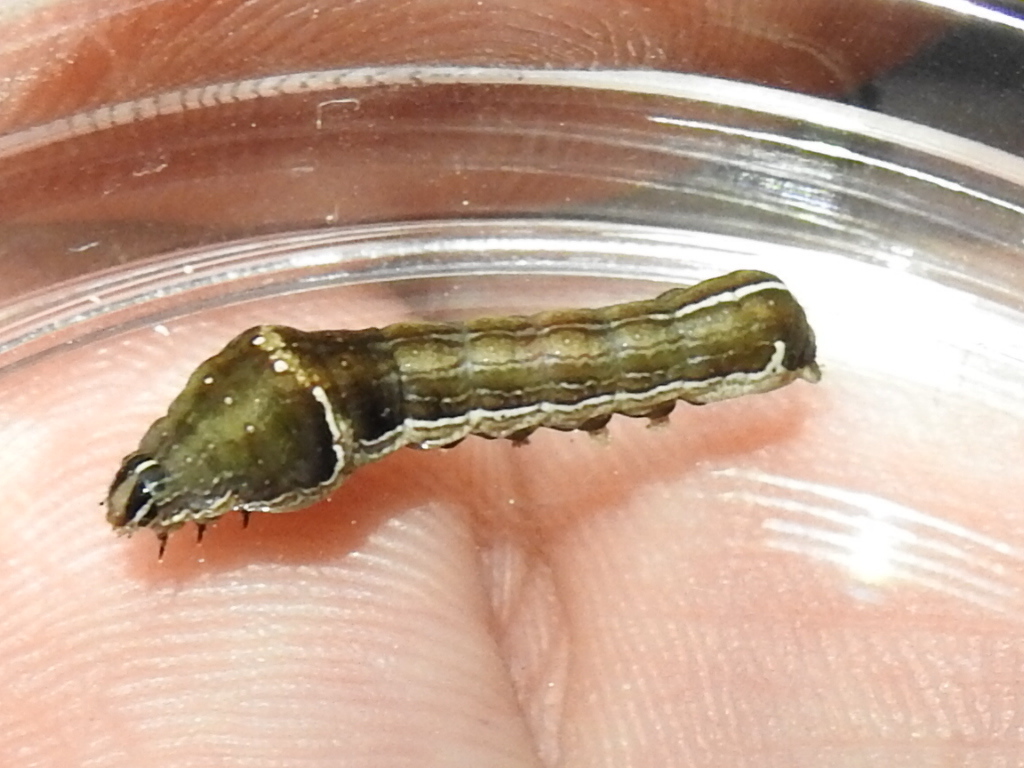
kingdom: Animalia
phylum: Arthropoda
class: Insecta
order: Lepidoptera
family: Noctuidae
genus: Galgula
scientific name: Galgula partita
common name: Wedgeling
